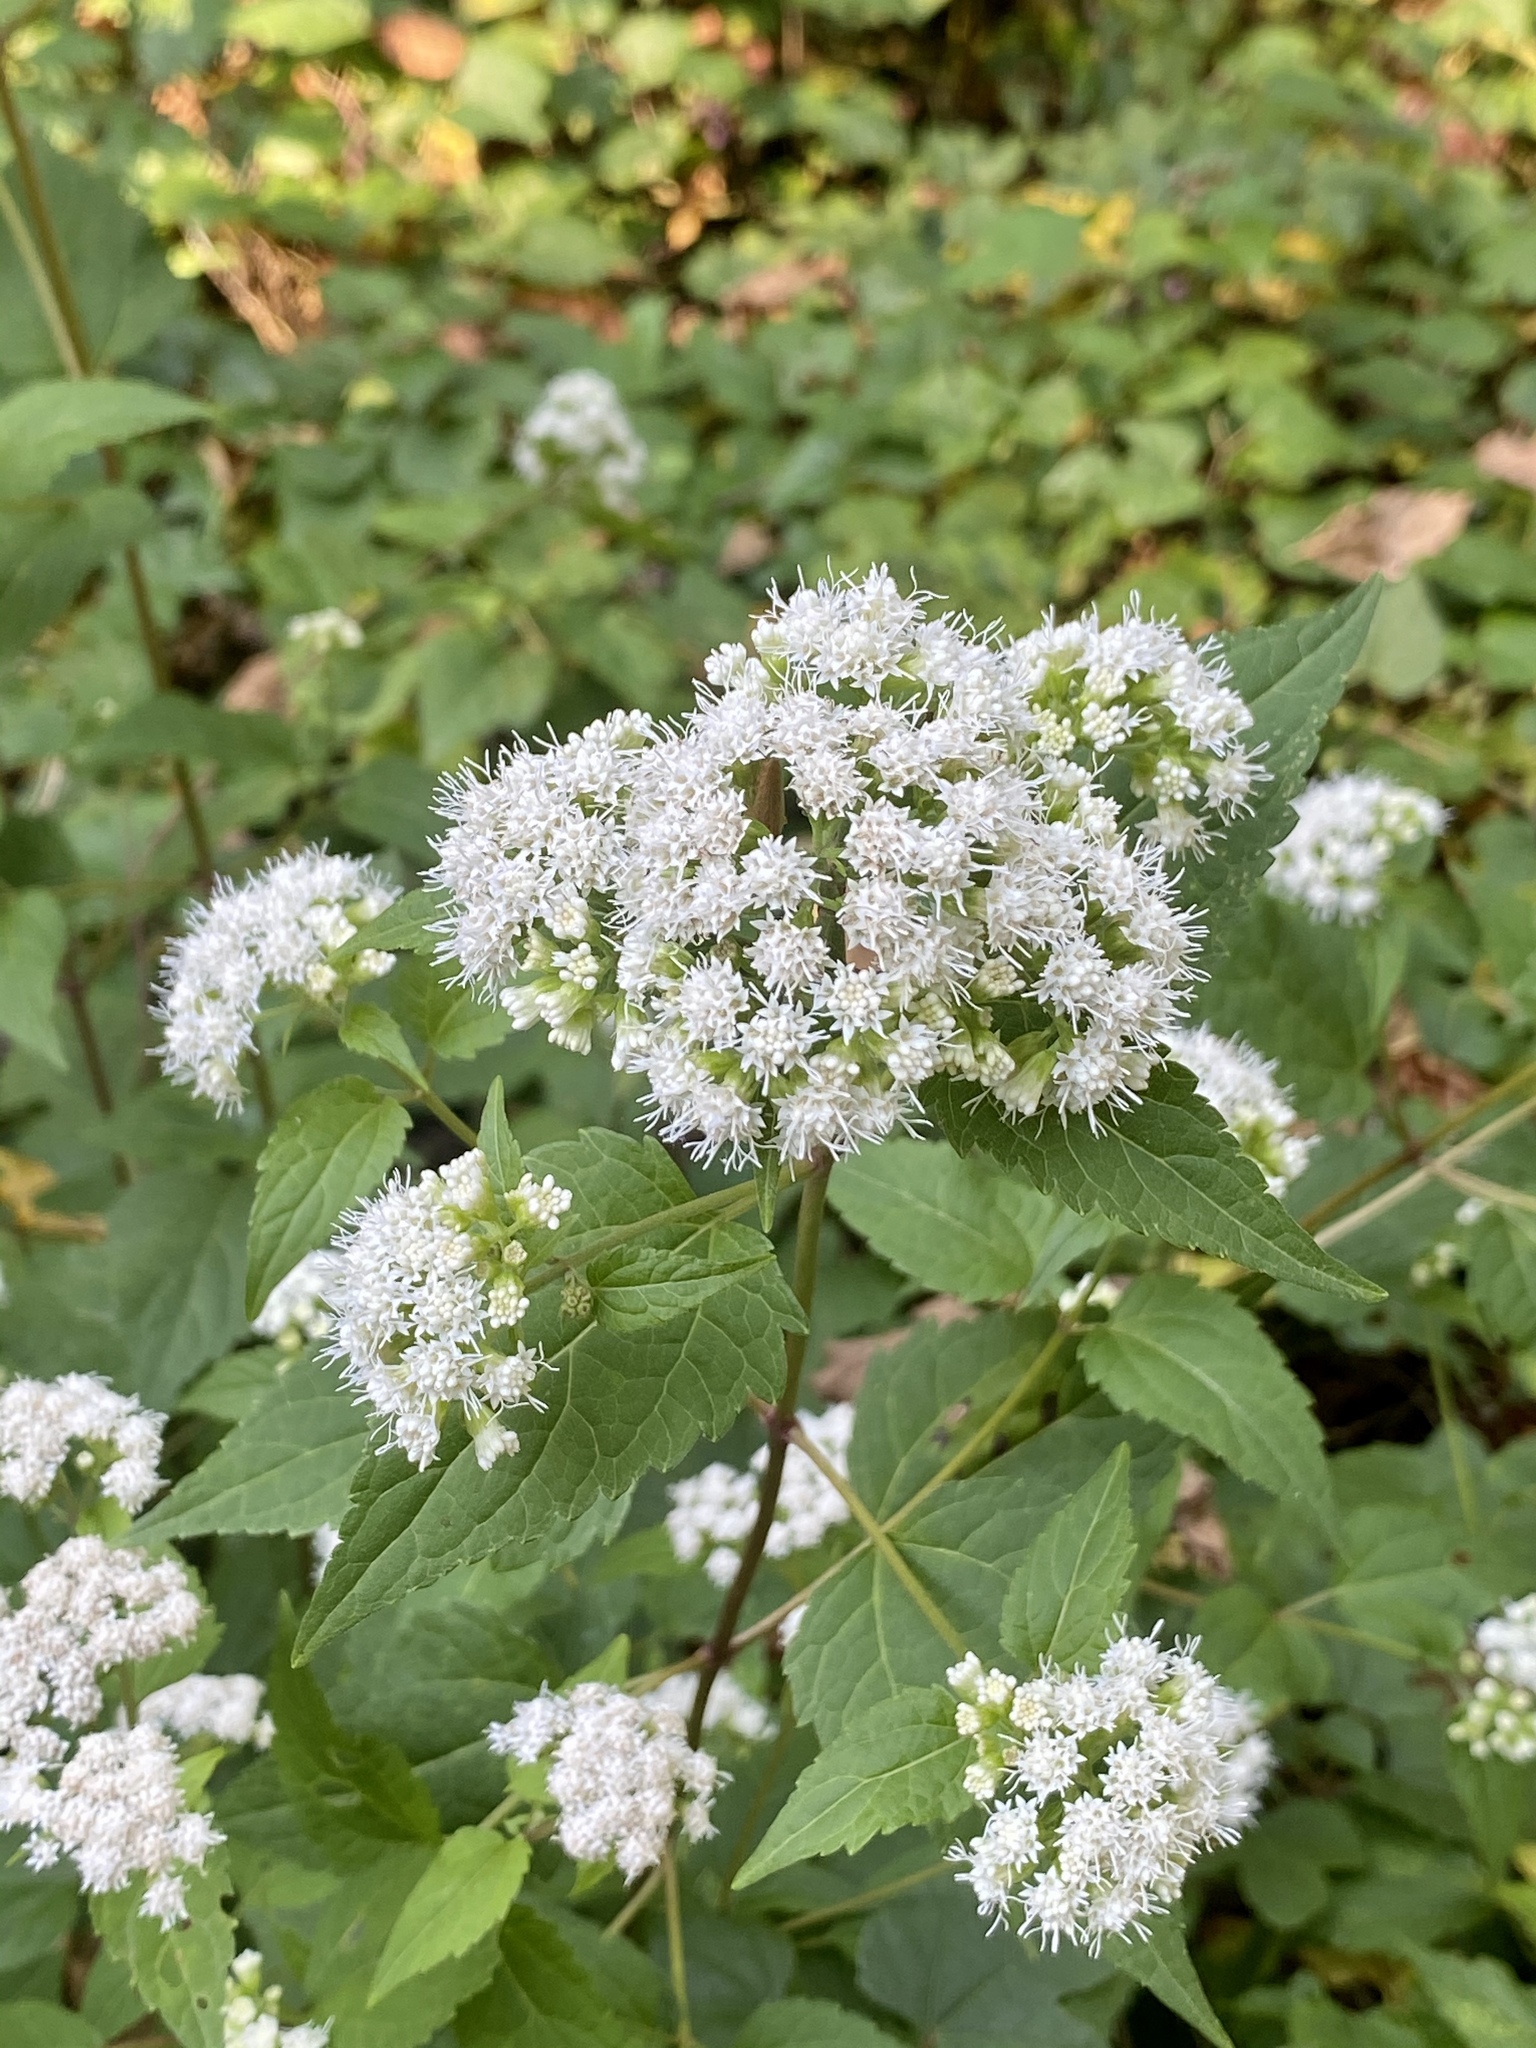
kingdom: Plantae
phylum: Tracheophyta
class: Magnoliopsida
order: Asterales
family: Asteraceae
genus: Ageratina
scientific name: Ageratina altissima
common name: White snakeroot
